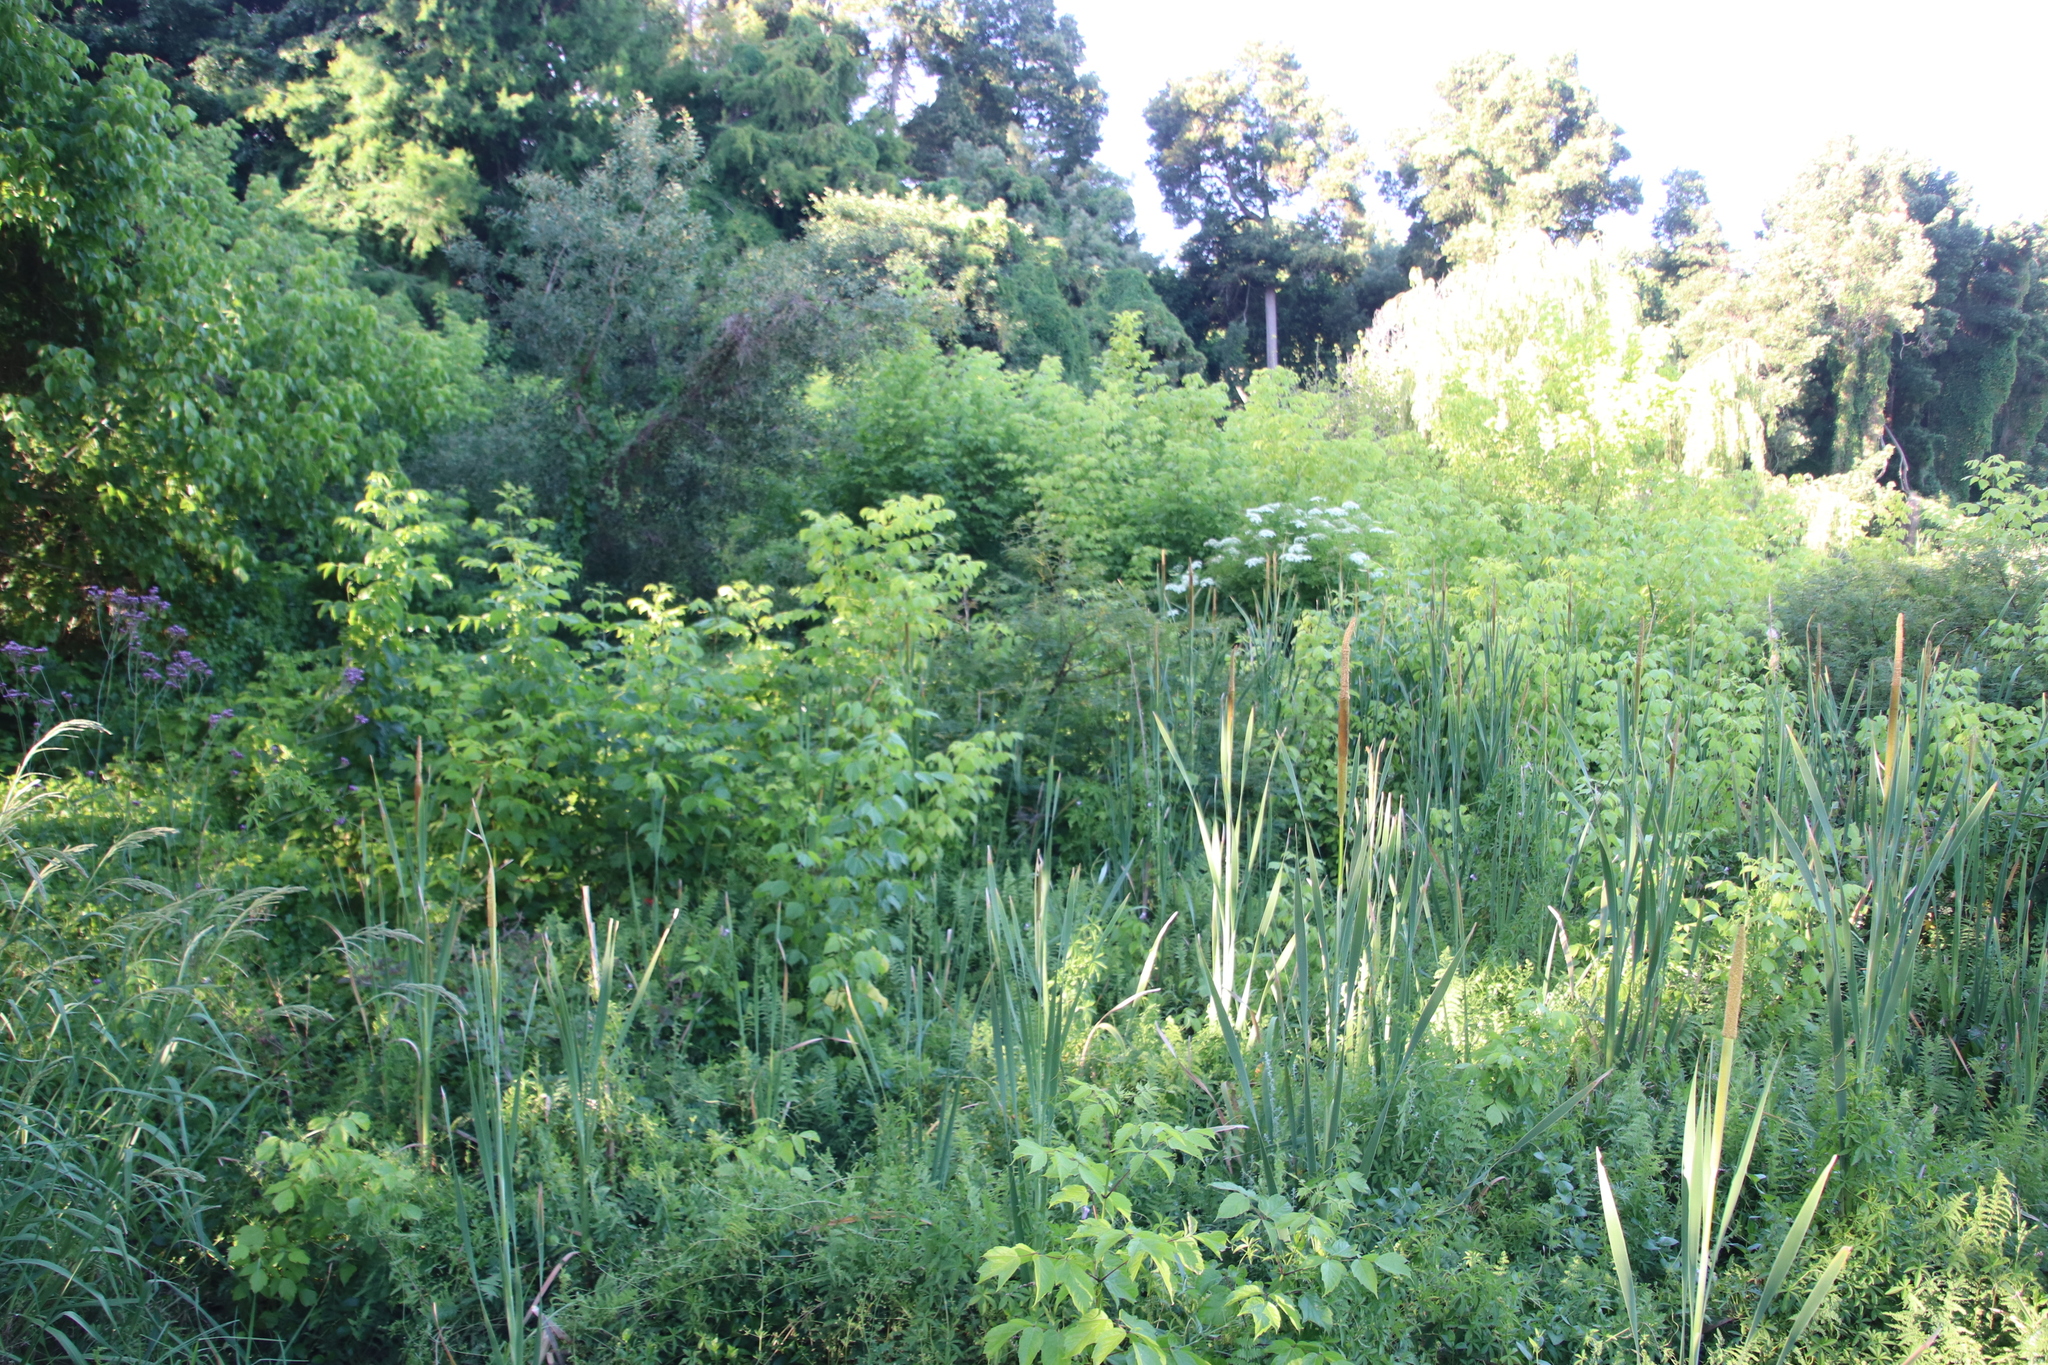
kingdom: Plantae
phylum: Tracheophyta
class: Magnoliopsida
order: Sapindales
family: Sapindaceae
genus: Acer
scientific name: Acer negundo
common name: Ashleaf maple
